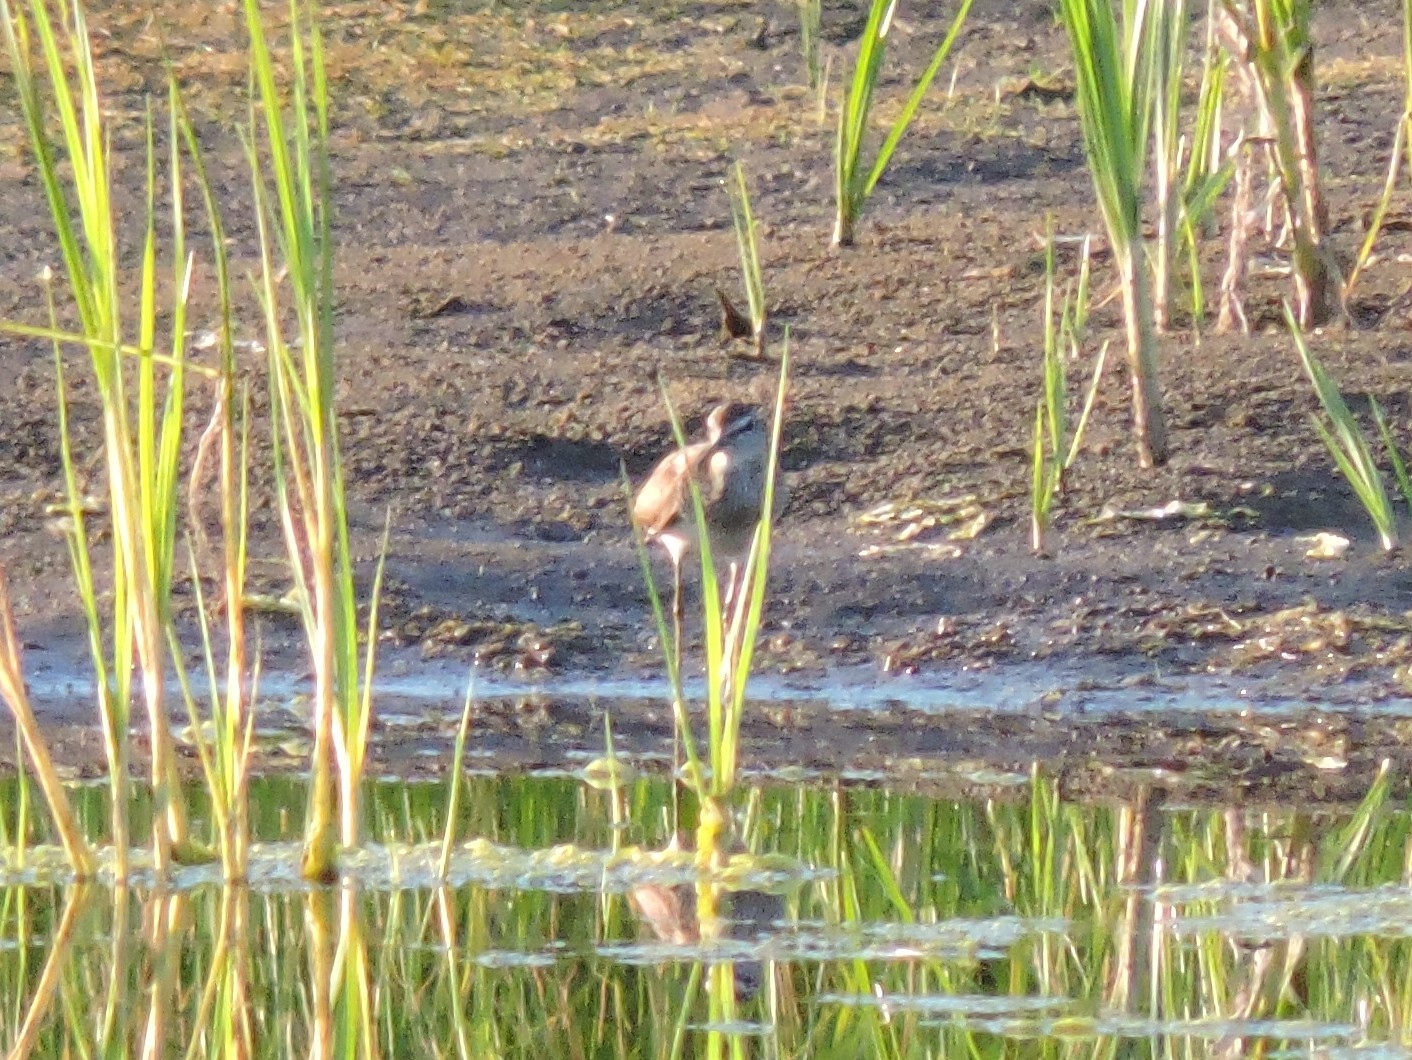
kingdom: Animalia
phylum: Chordata
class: Aves
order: Charadriiformes
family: Scolopacidae
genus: Tringa
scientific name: Tringa glareola
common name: Wood sandpiper
